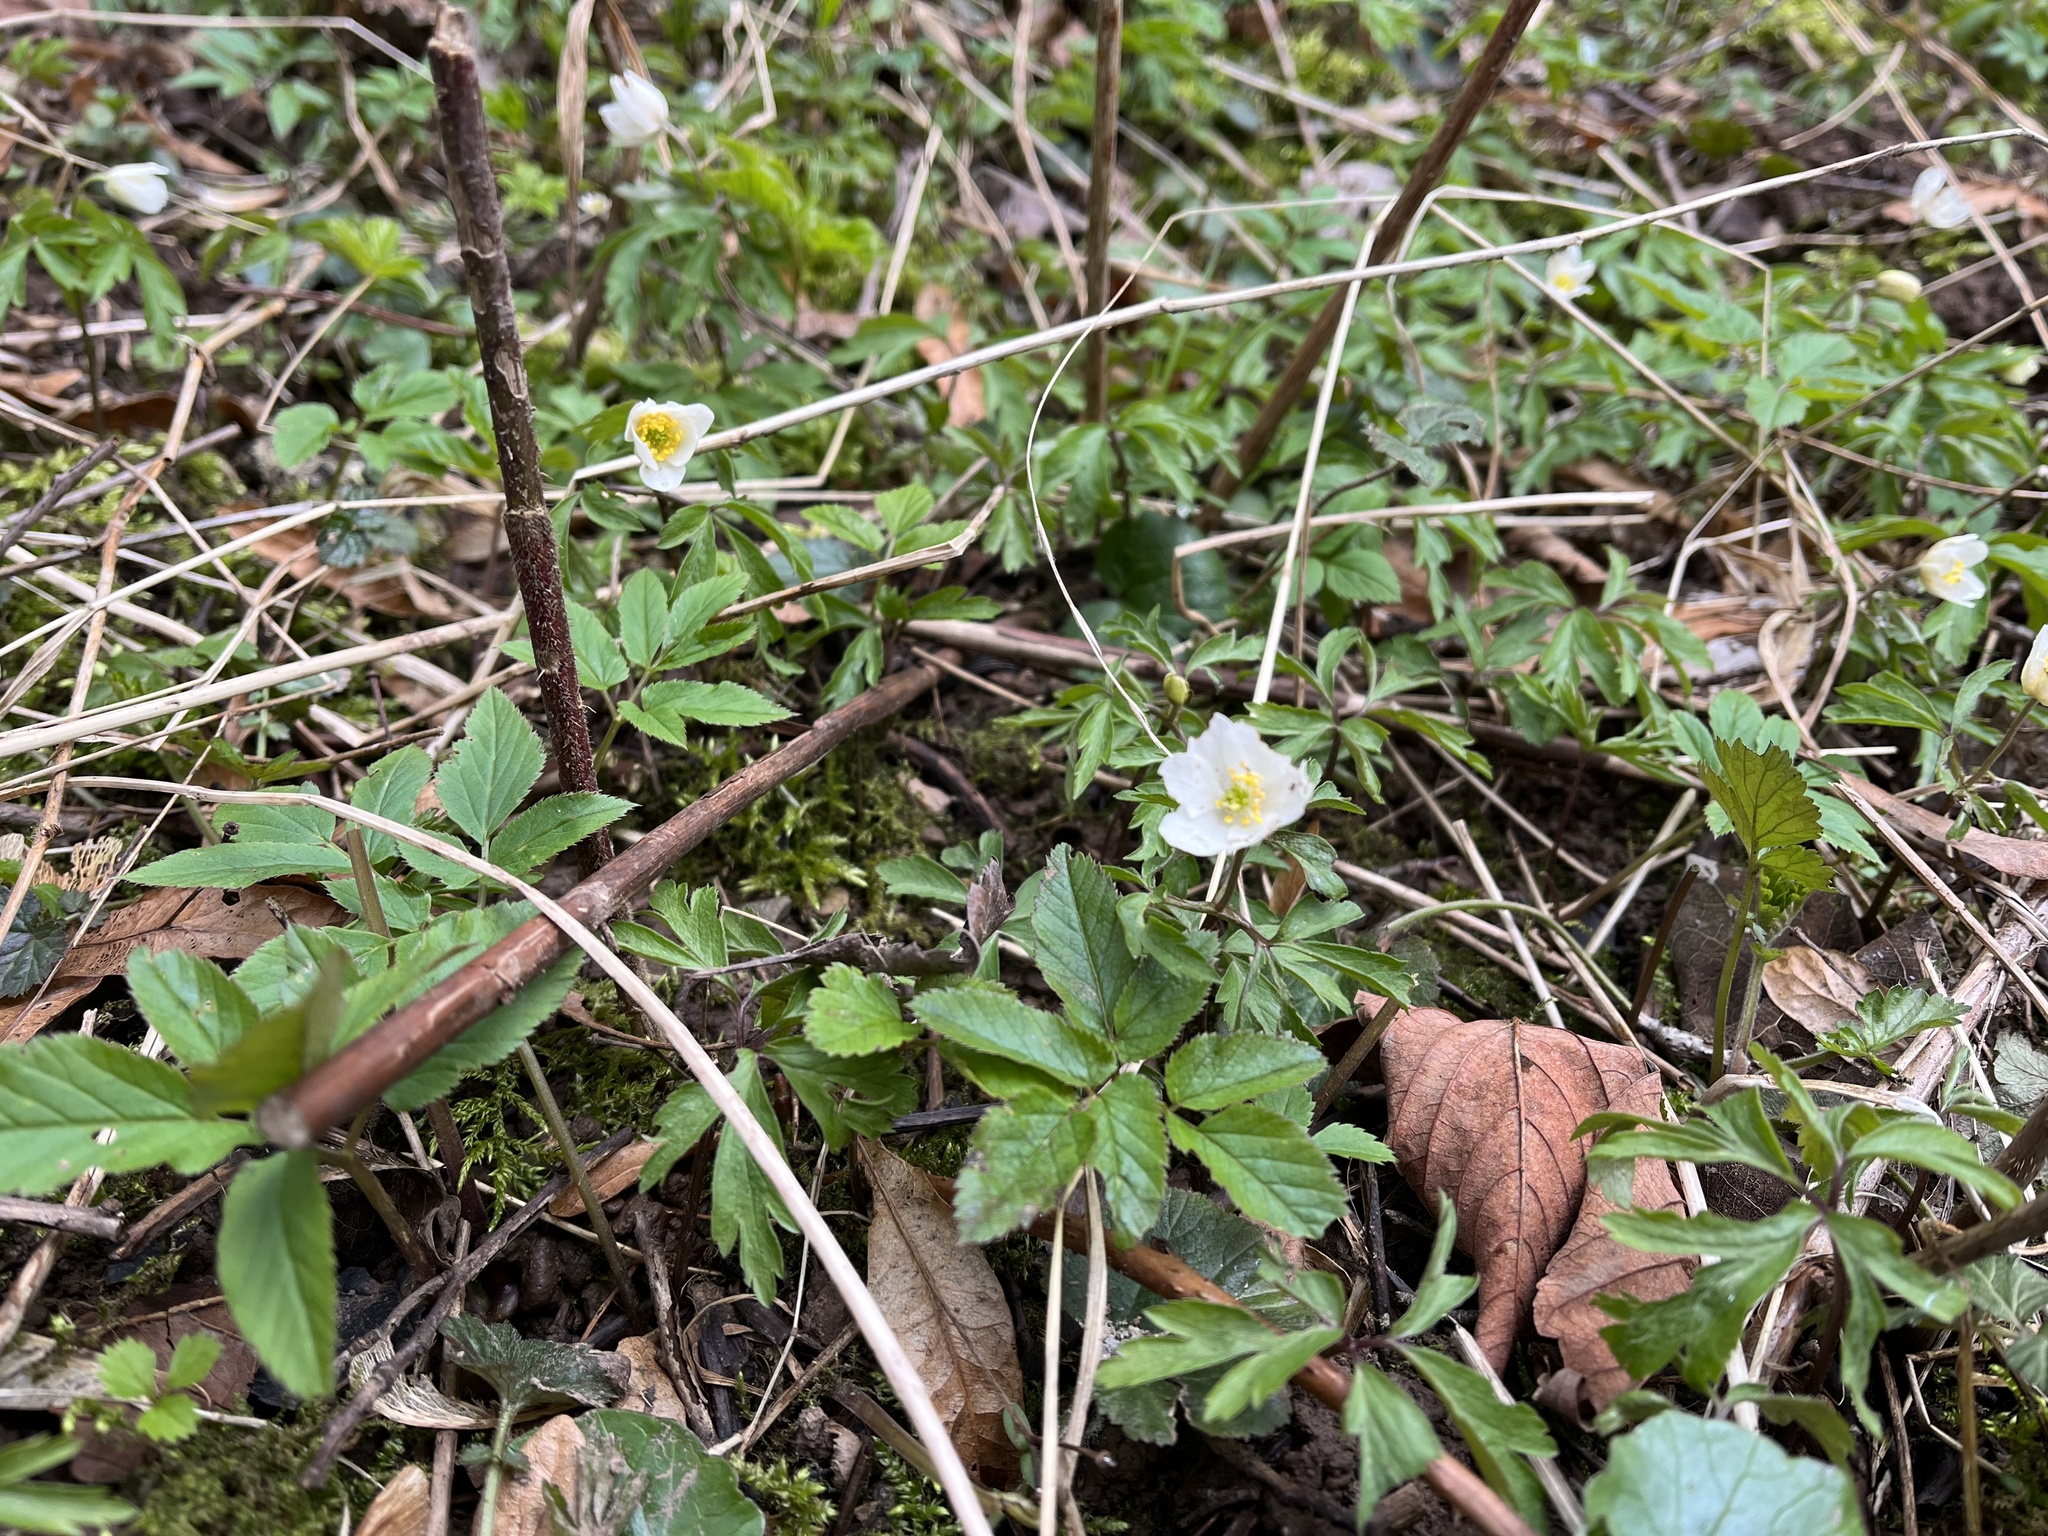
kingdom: Plantae
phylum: Tracheophyta
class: Magnoliopsida
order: Ranunculales
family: Ranunculaceae
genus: Anemone
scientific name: Anemone nemorosa
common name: Wood anemone
